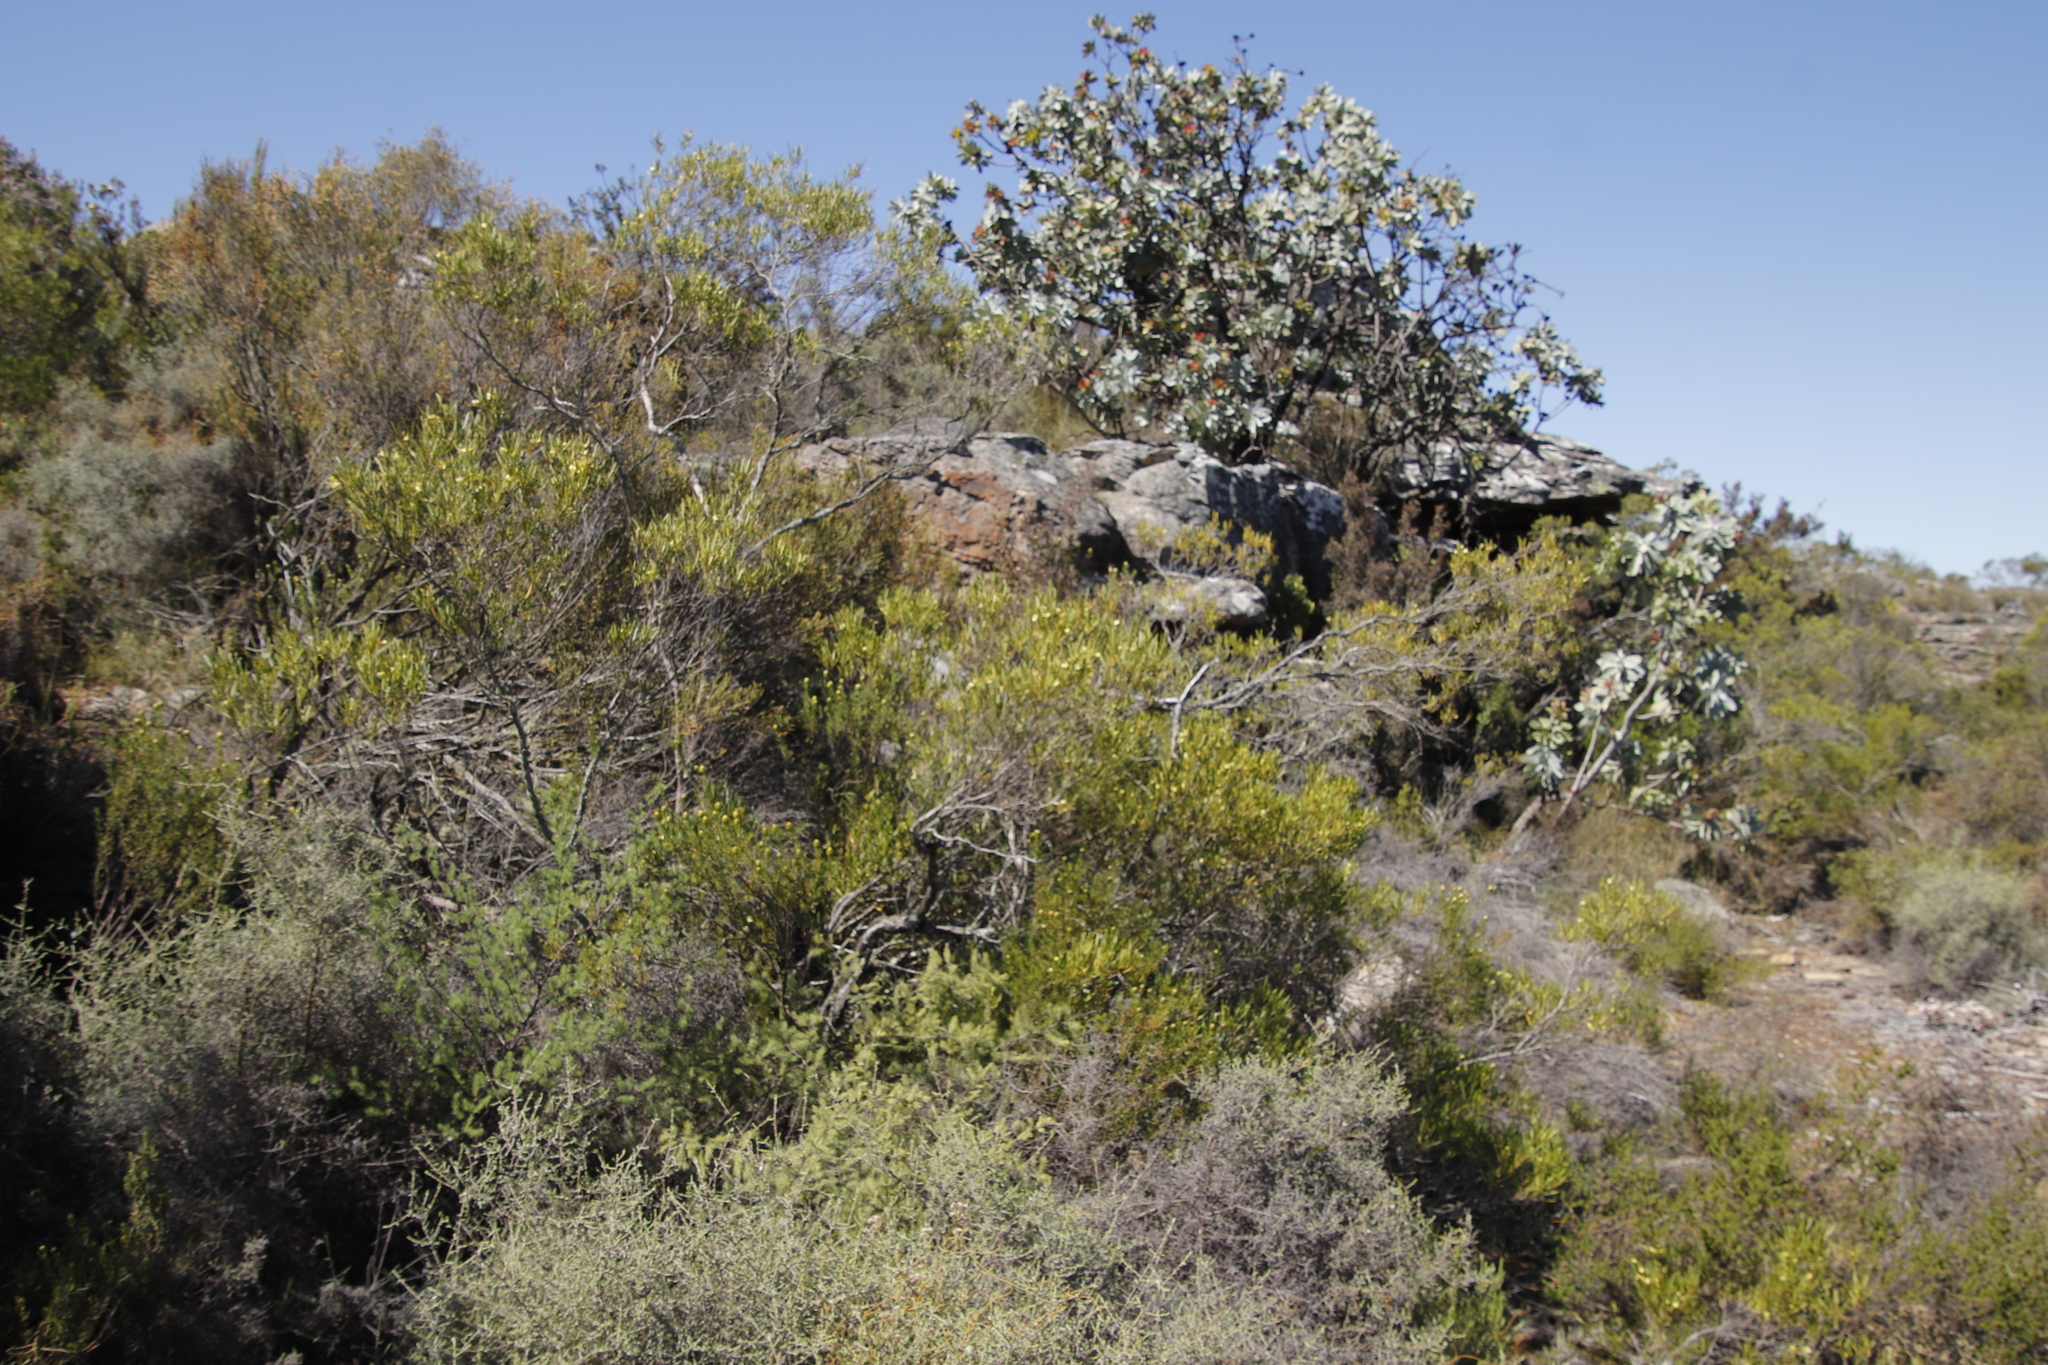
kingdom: Plantae
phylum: Tracheophyta
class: Magnoliopsida
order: Proteales
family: Proteaceae
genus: Protea
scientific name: Protea nitida
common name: Tree protea
